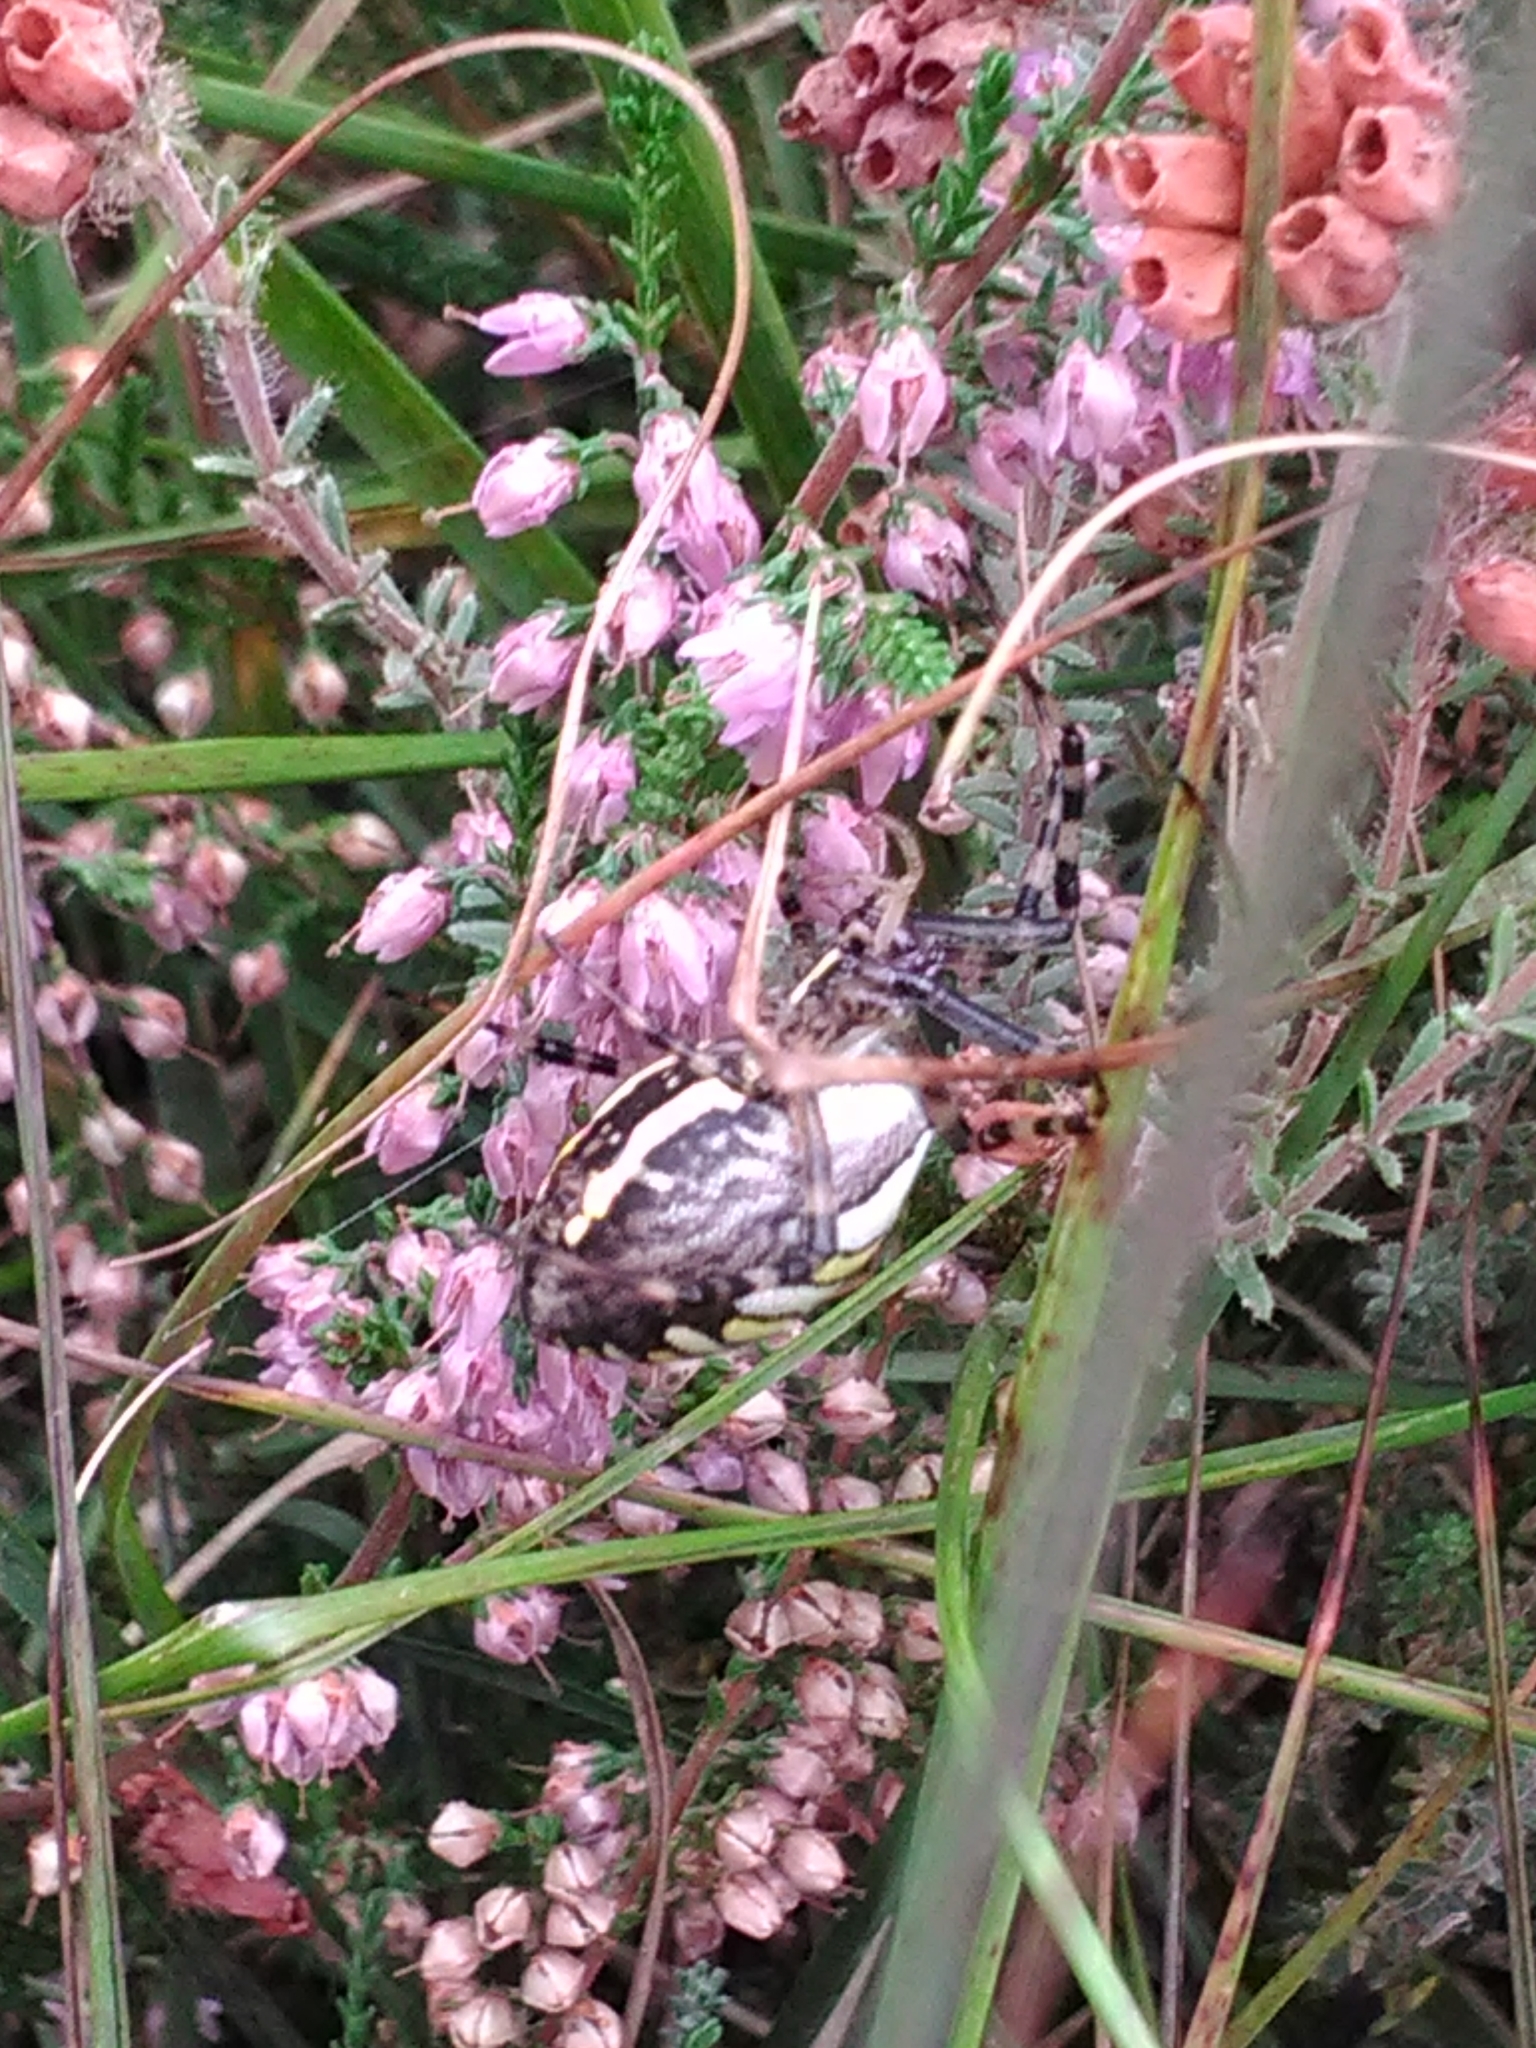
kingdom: Animalia
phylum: Arthropoda
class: Arachnida
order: Araneae
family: Araneidae
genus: Argiope
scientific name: Argiope bruennichi
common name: Wasp spider
